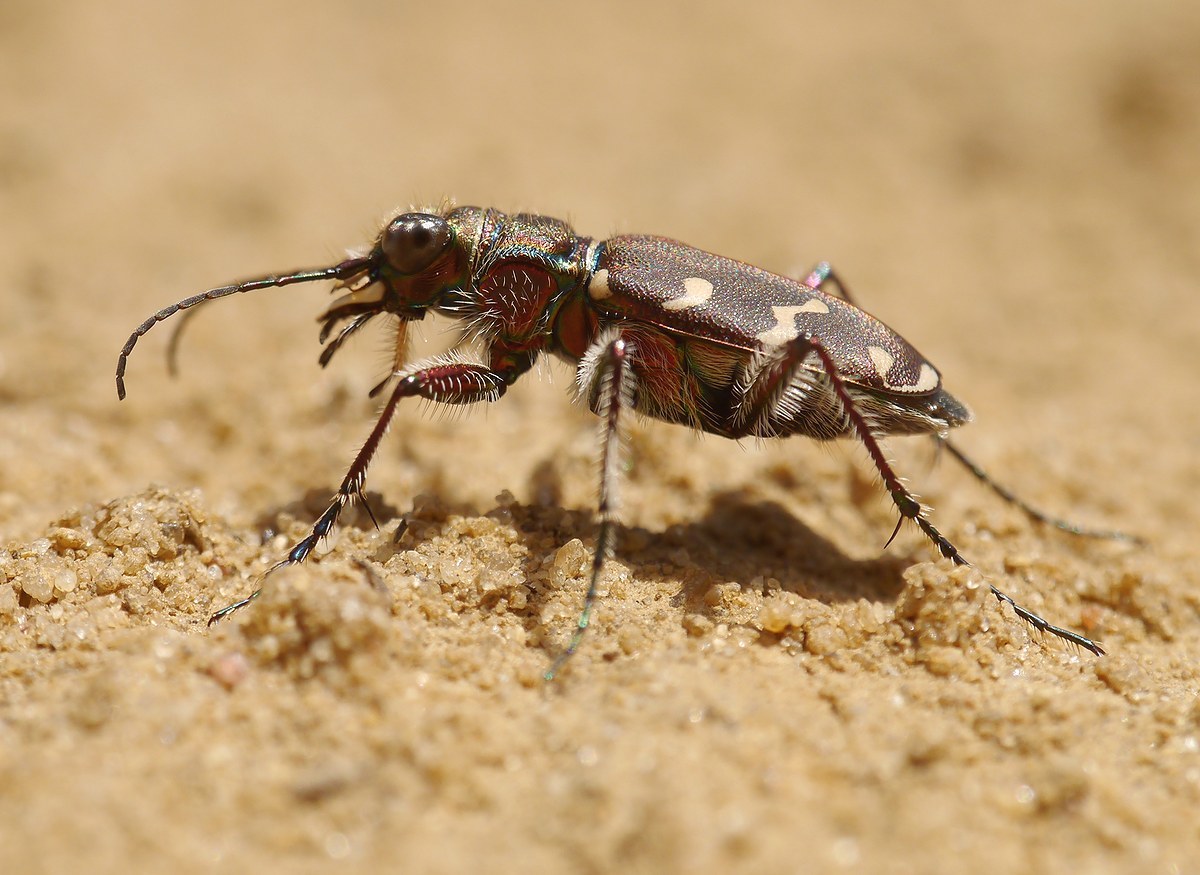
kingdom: Animalia
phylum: Arthropoda
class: Insecta
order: Coleoptera
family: Carabidae
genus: Cicindela
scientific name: Cicindela soluta
